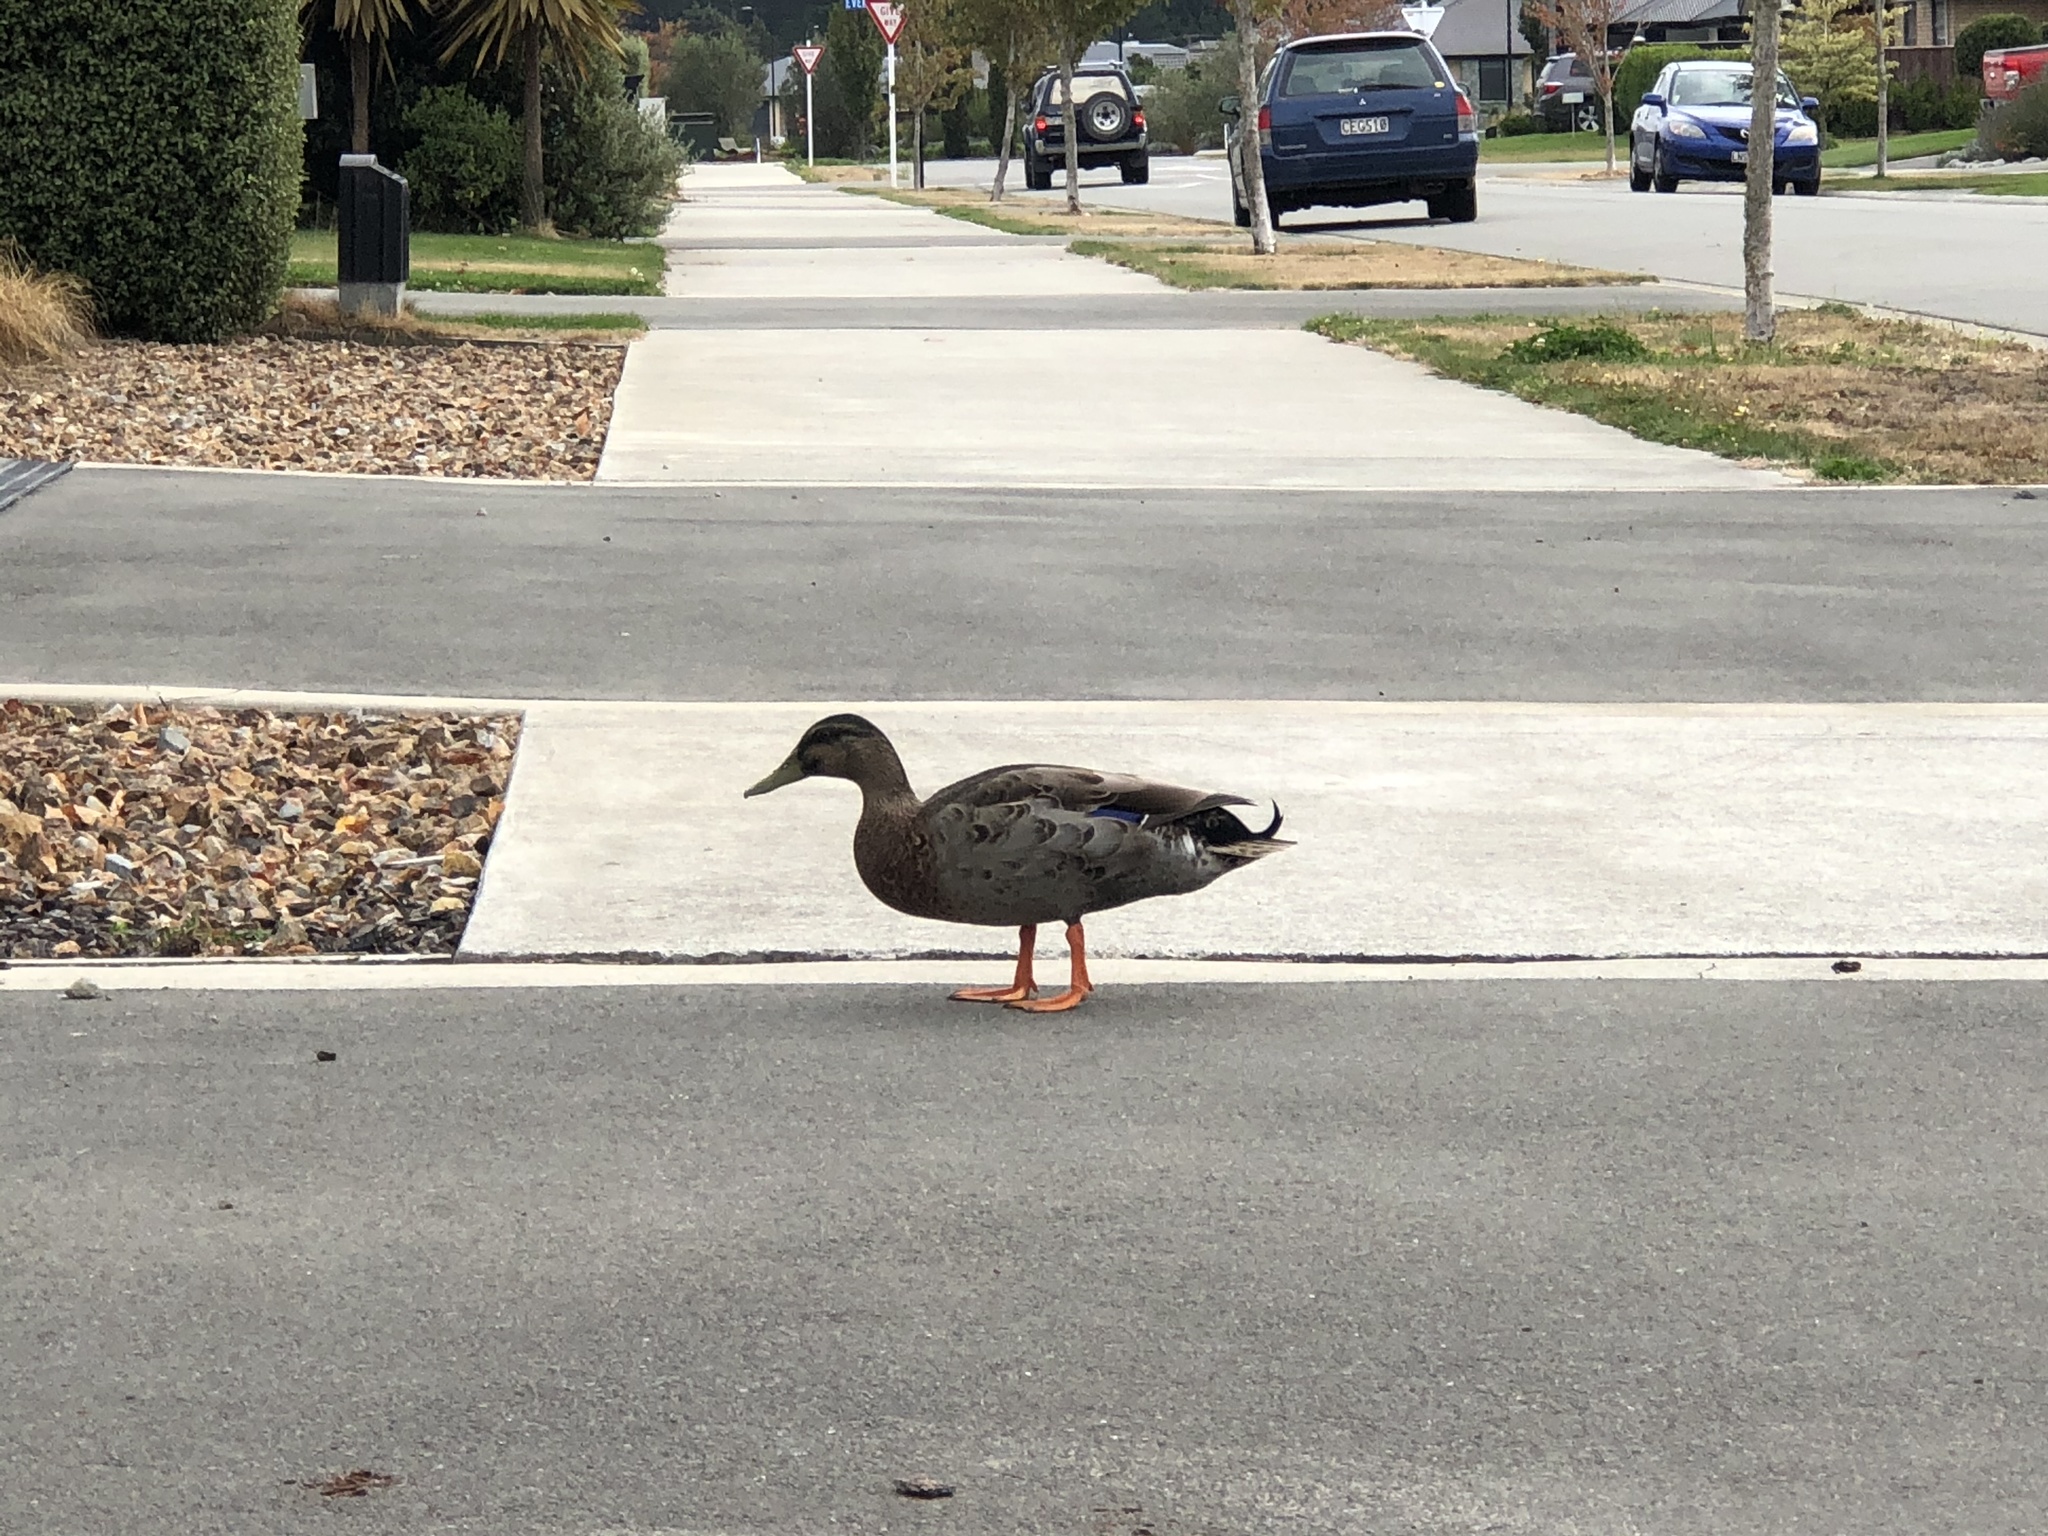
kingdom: Animalia
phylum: Chordata
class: Aves
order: Anseriformes
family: Anatidae
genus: Anas
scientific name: Anas platyrhynchos
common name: Mallard
